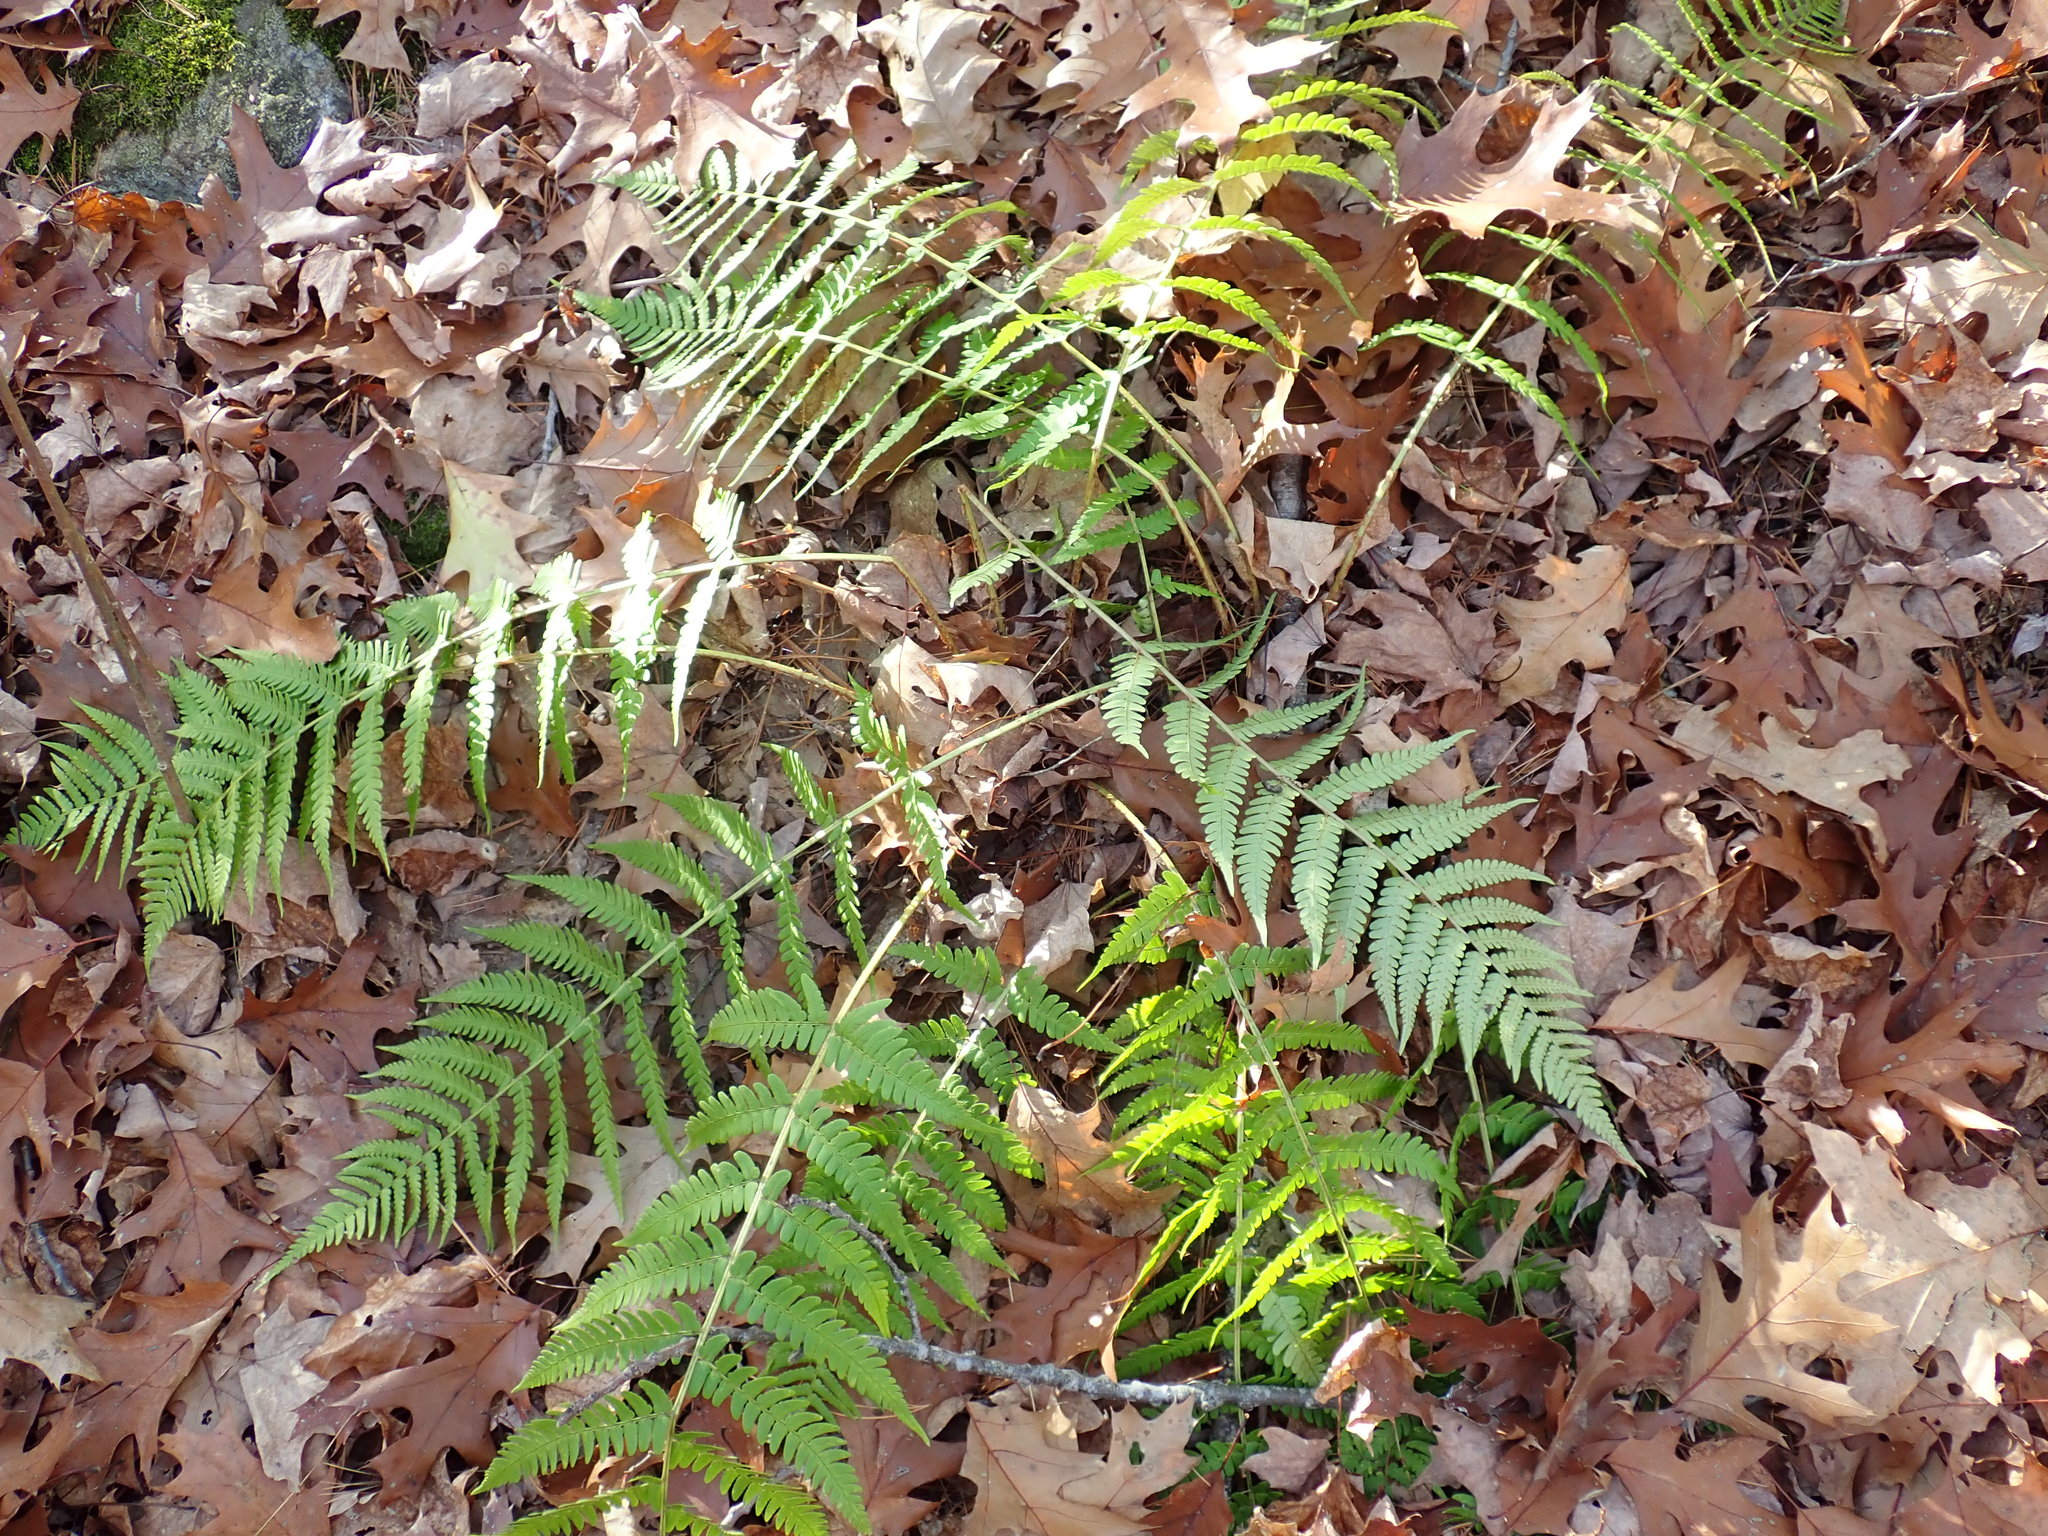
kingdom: Plantae
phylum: Tracheophyta
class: Polypodiopsida
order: Polypodiales
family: Dryopteridaceae
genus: Dryopteris
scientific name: Dryopteris marginalis
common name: Marginal wood fern
